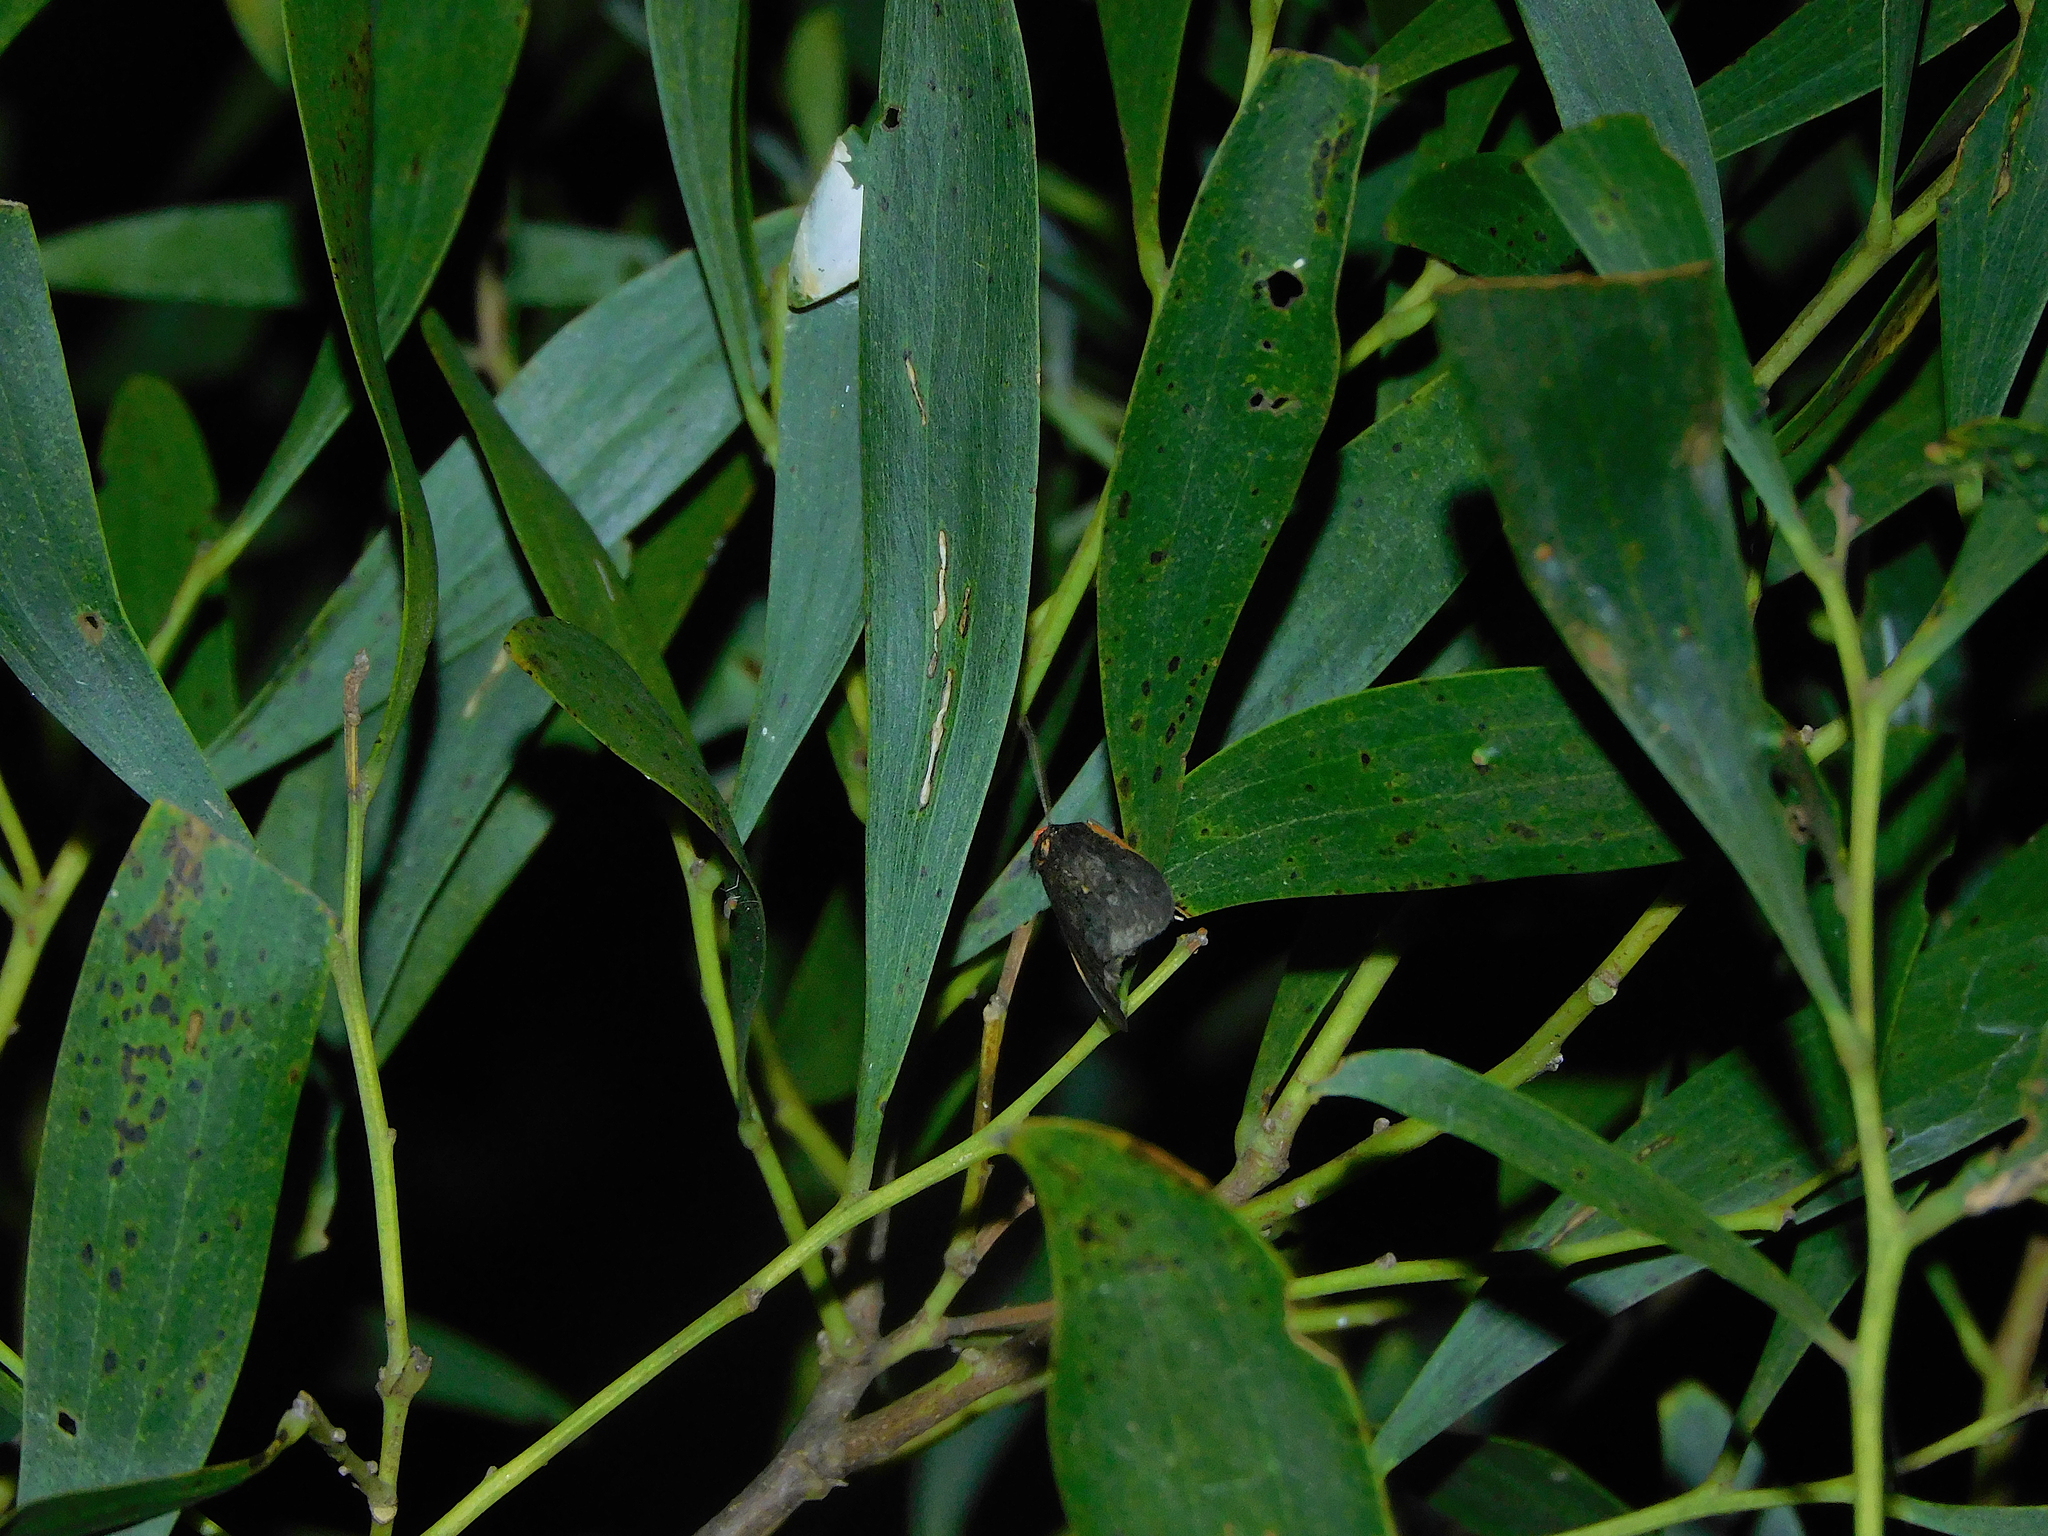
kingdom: Animalia
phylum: Arthropoda
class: Insecta
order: Lepidoptera
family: Erebidae
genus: Castulo
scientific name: Castulo doubledayi
